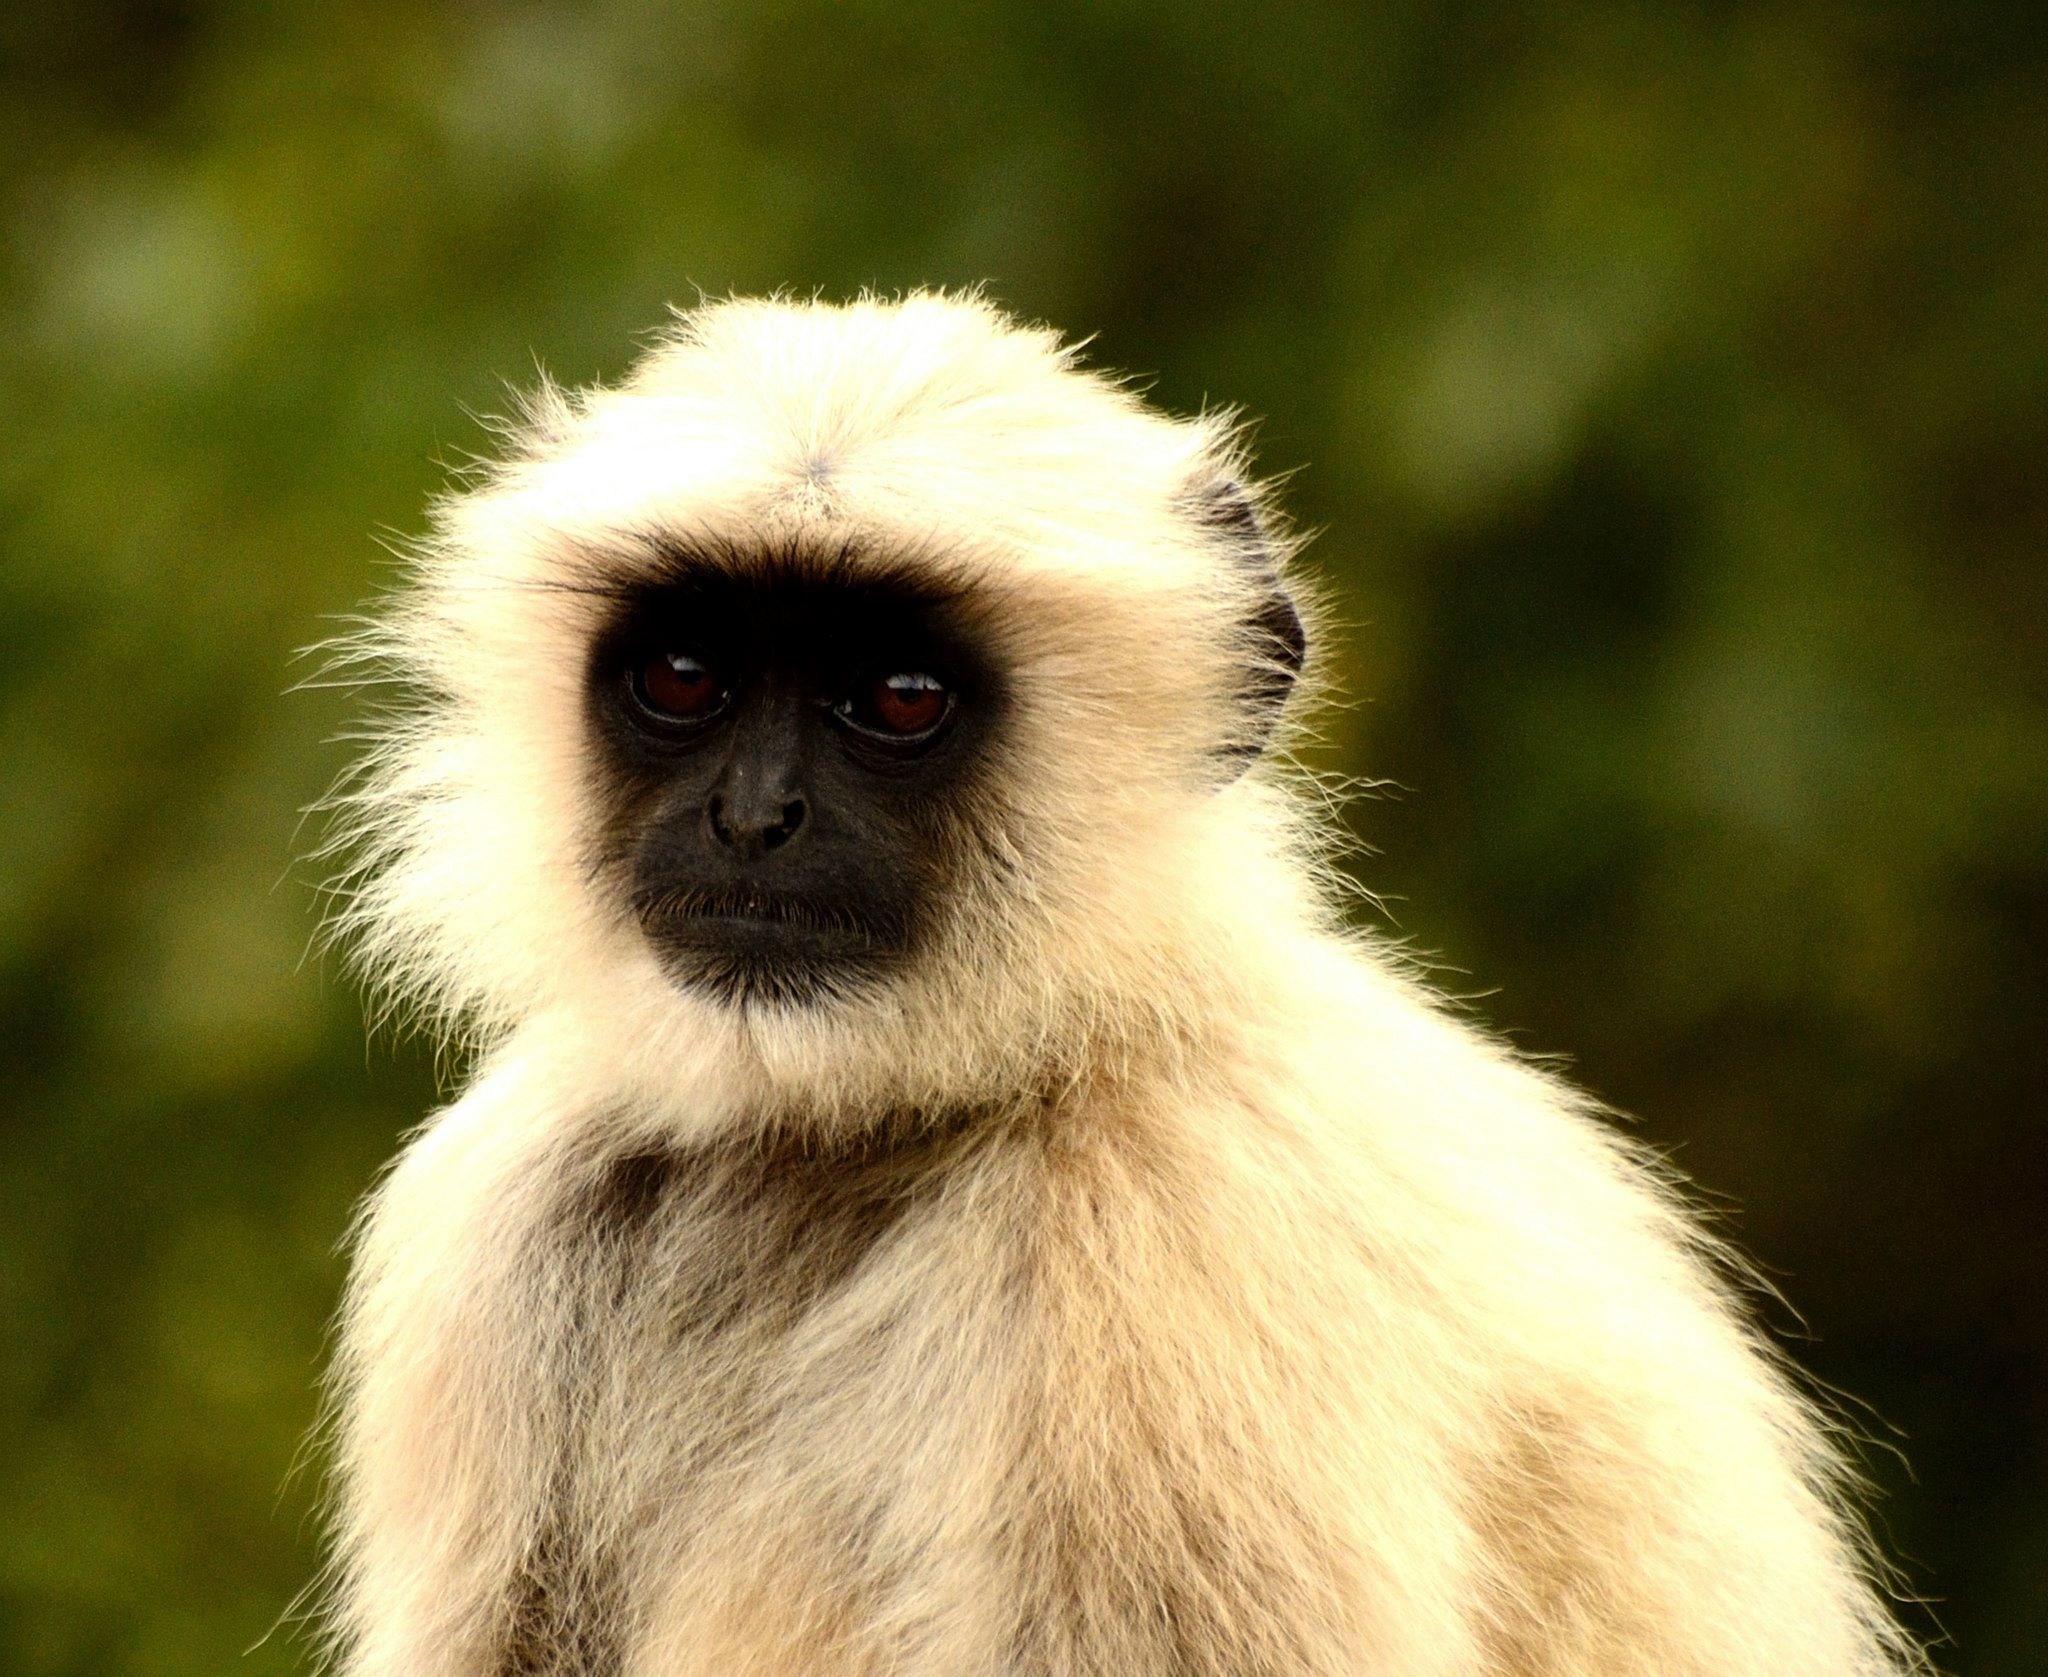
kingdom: Animalia
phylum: Chordata
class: Mammalia
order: Primates
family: Cercopithecidae
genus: Semnopithecus
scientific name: Semnopithecus entellus
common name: Northern plains gray langur
